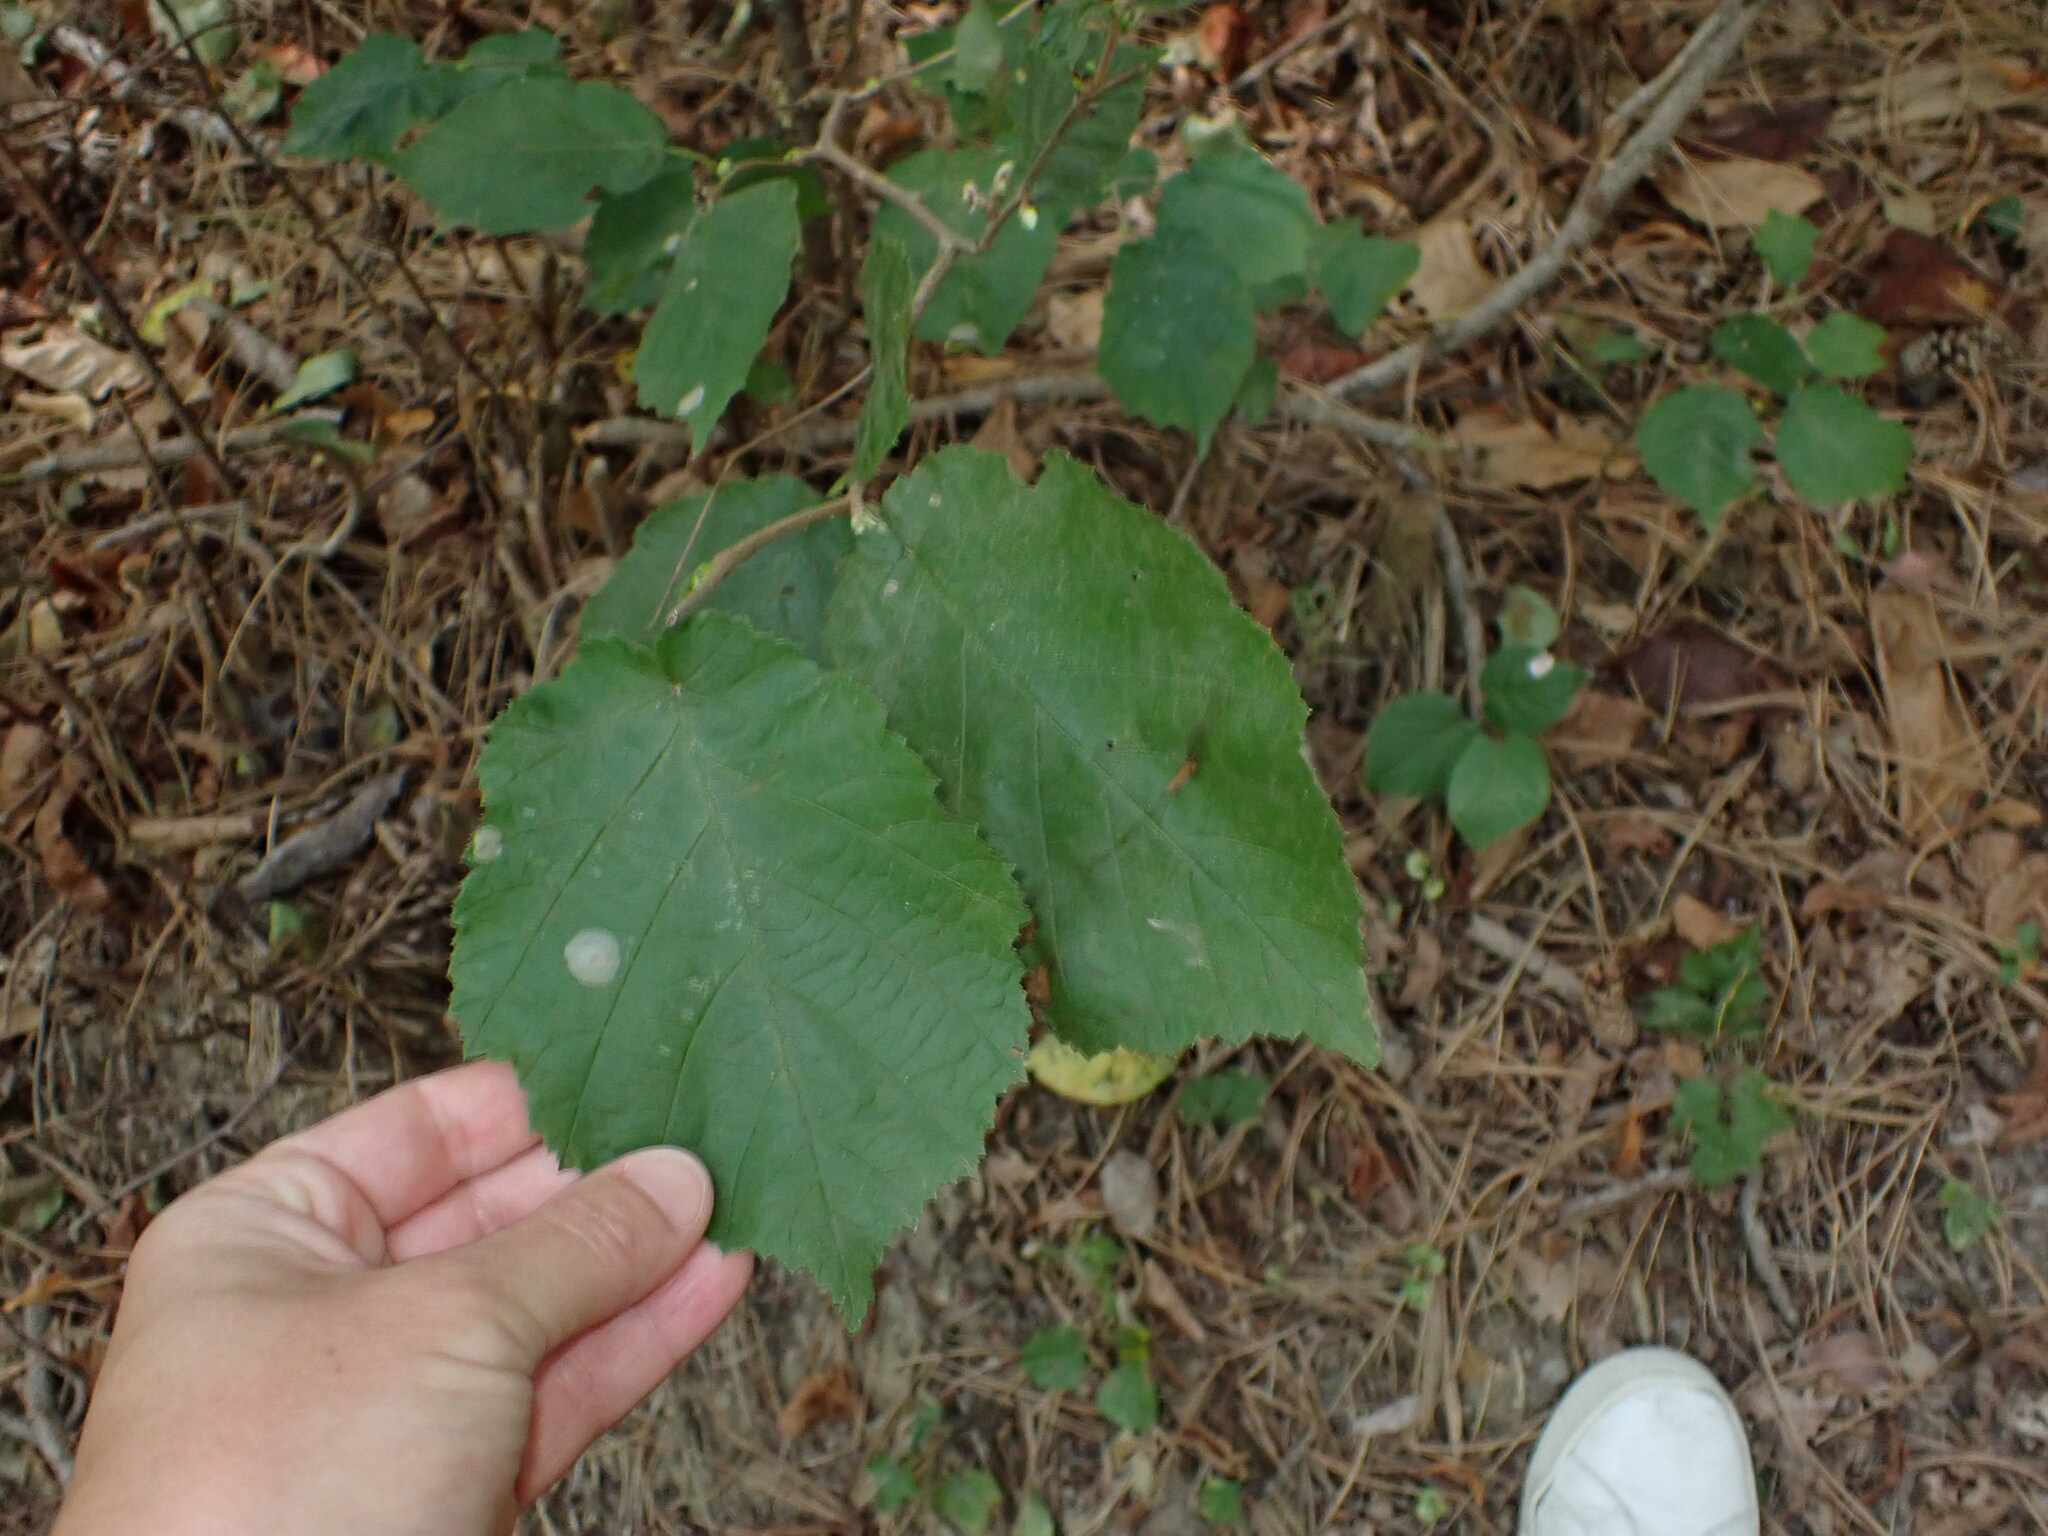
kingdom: Plantae
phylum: Tracheophyta
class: Magnoliopsida
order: Fagales
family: Betulaceae
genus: Corylus
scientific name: Corylus avellana
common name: European hazel
